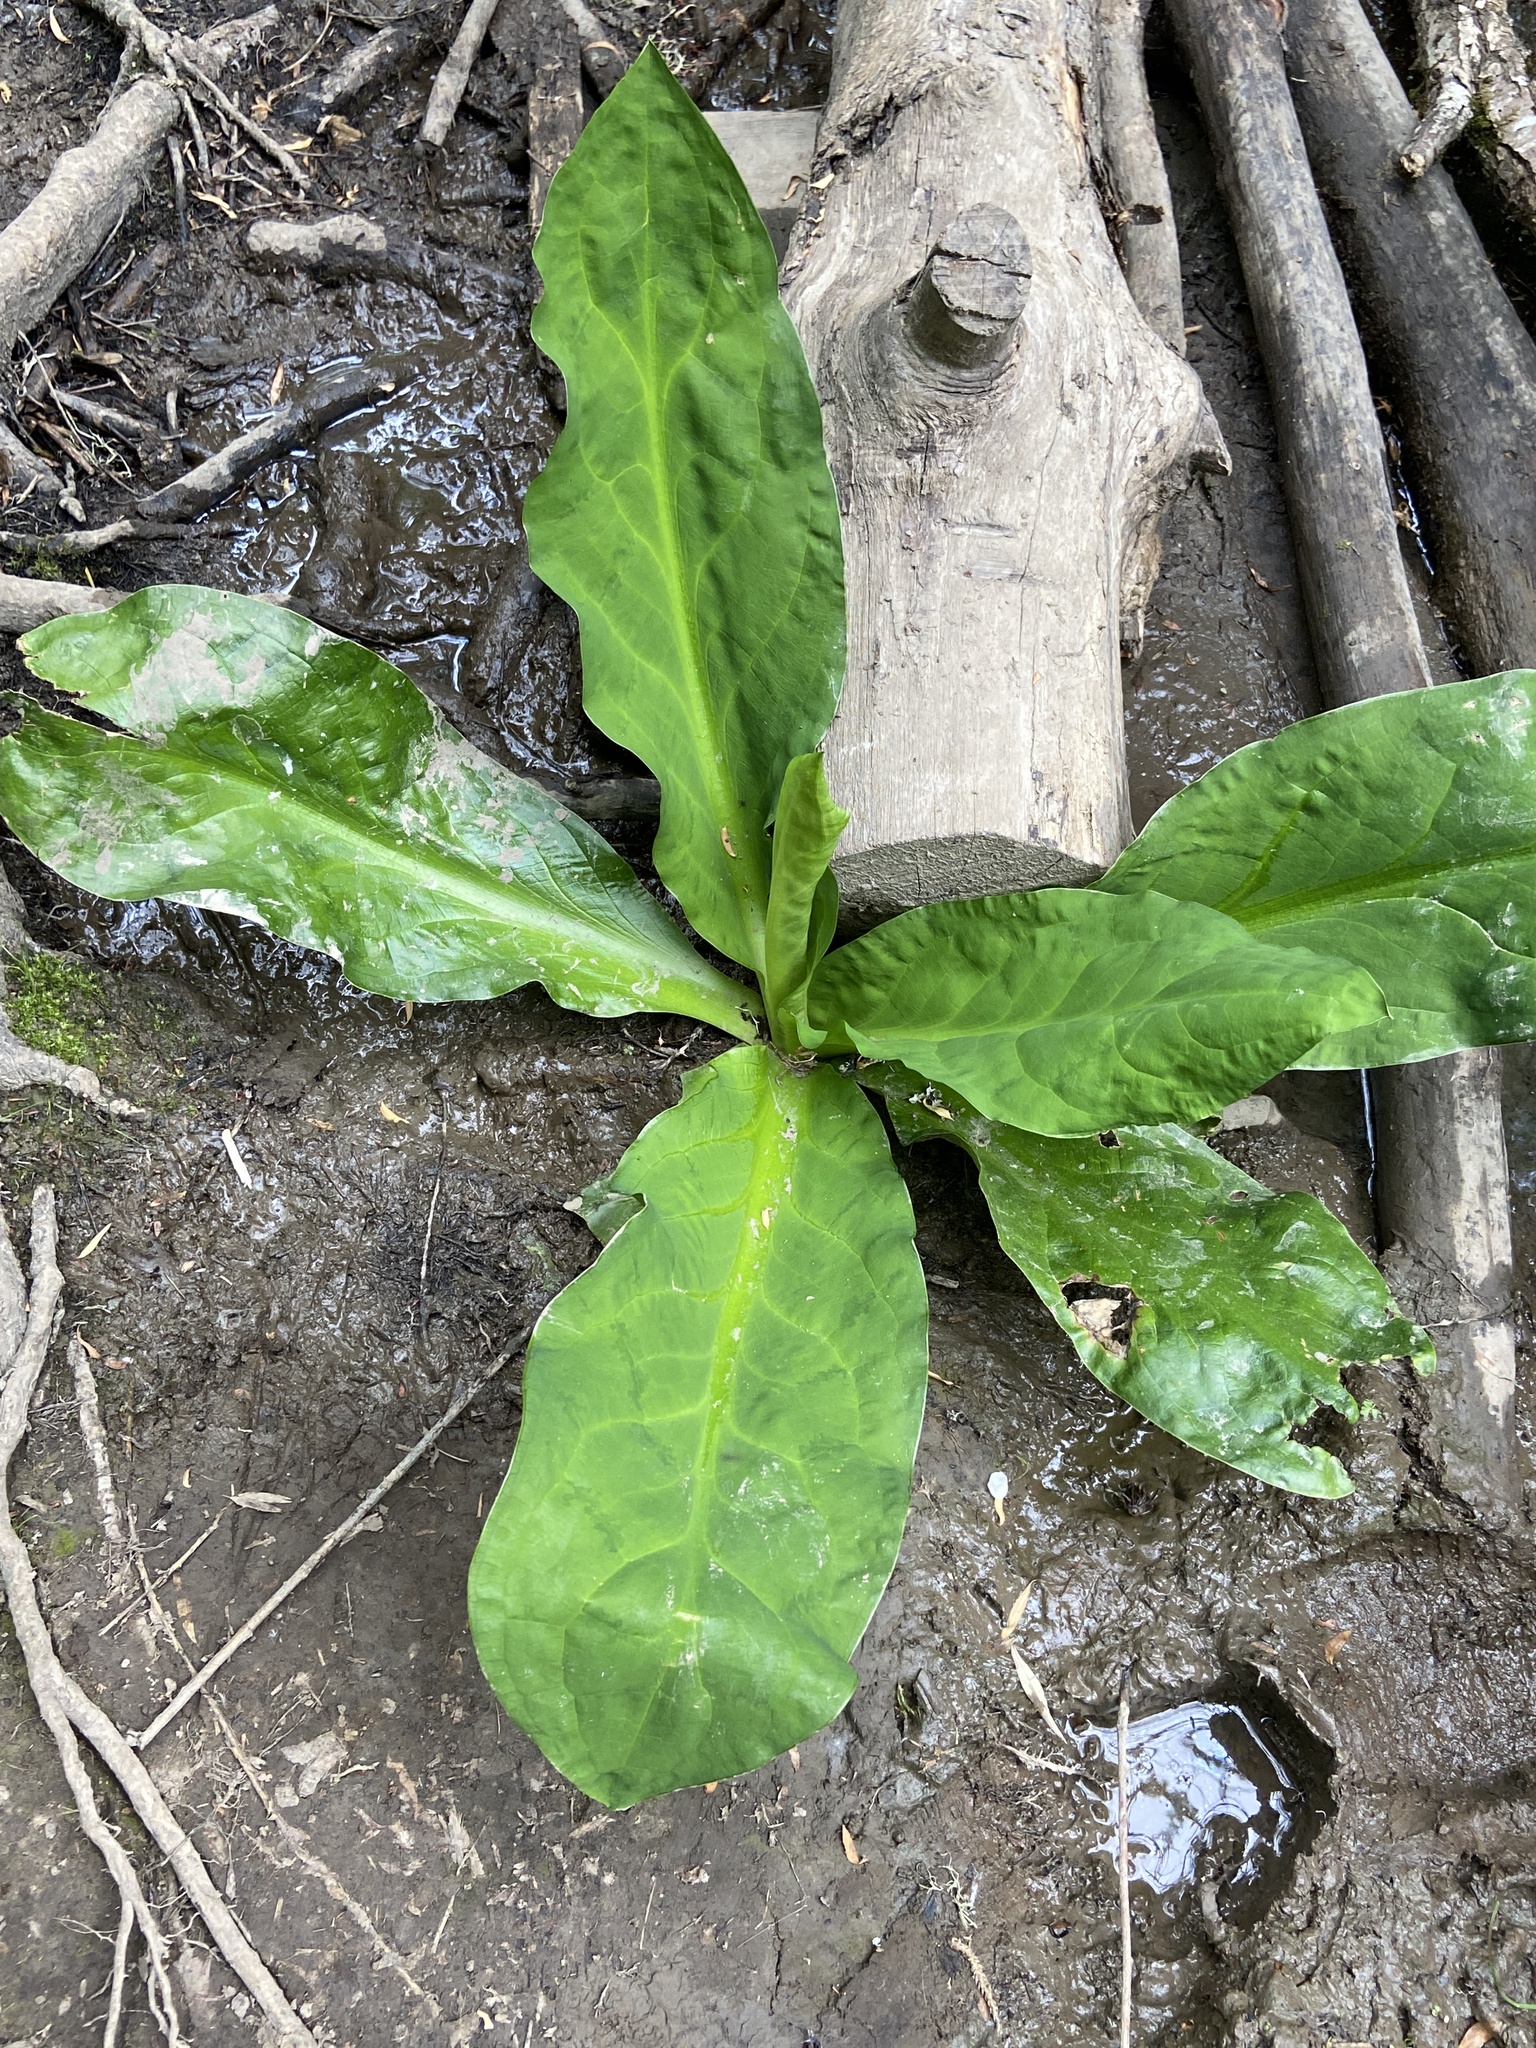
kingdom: Plantae
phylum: Tracheophyta
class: Liliopsida
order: Alismatales
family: Araceae
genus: Lysichiton
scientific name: Lysichiton americanus
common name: American skunk cabbage
